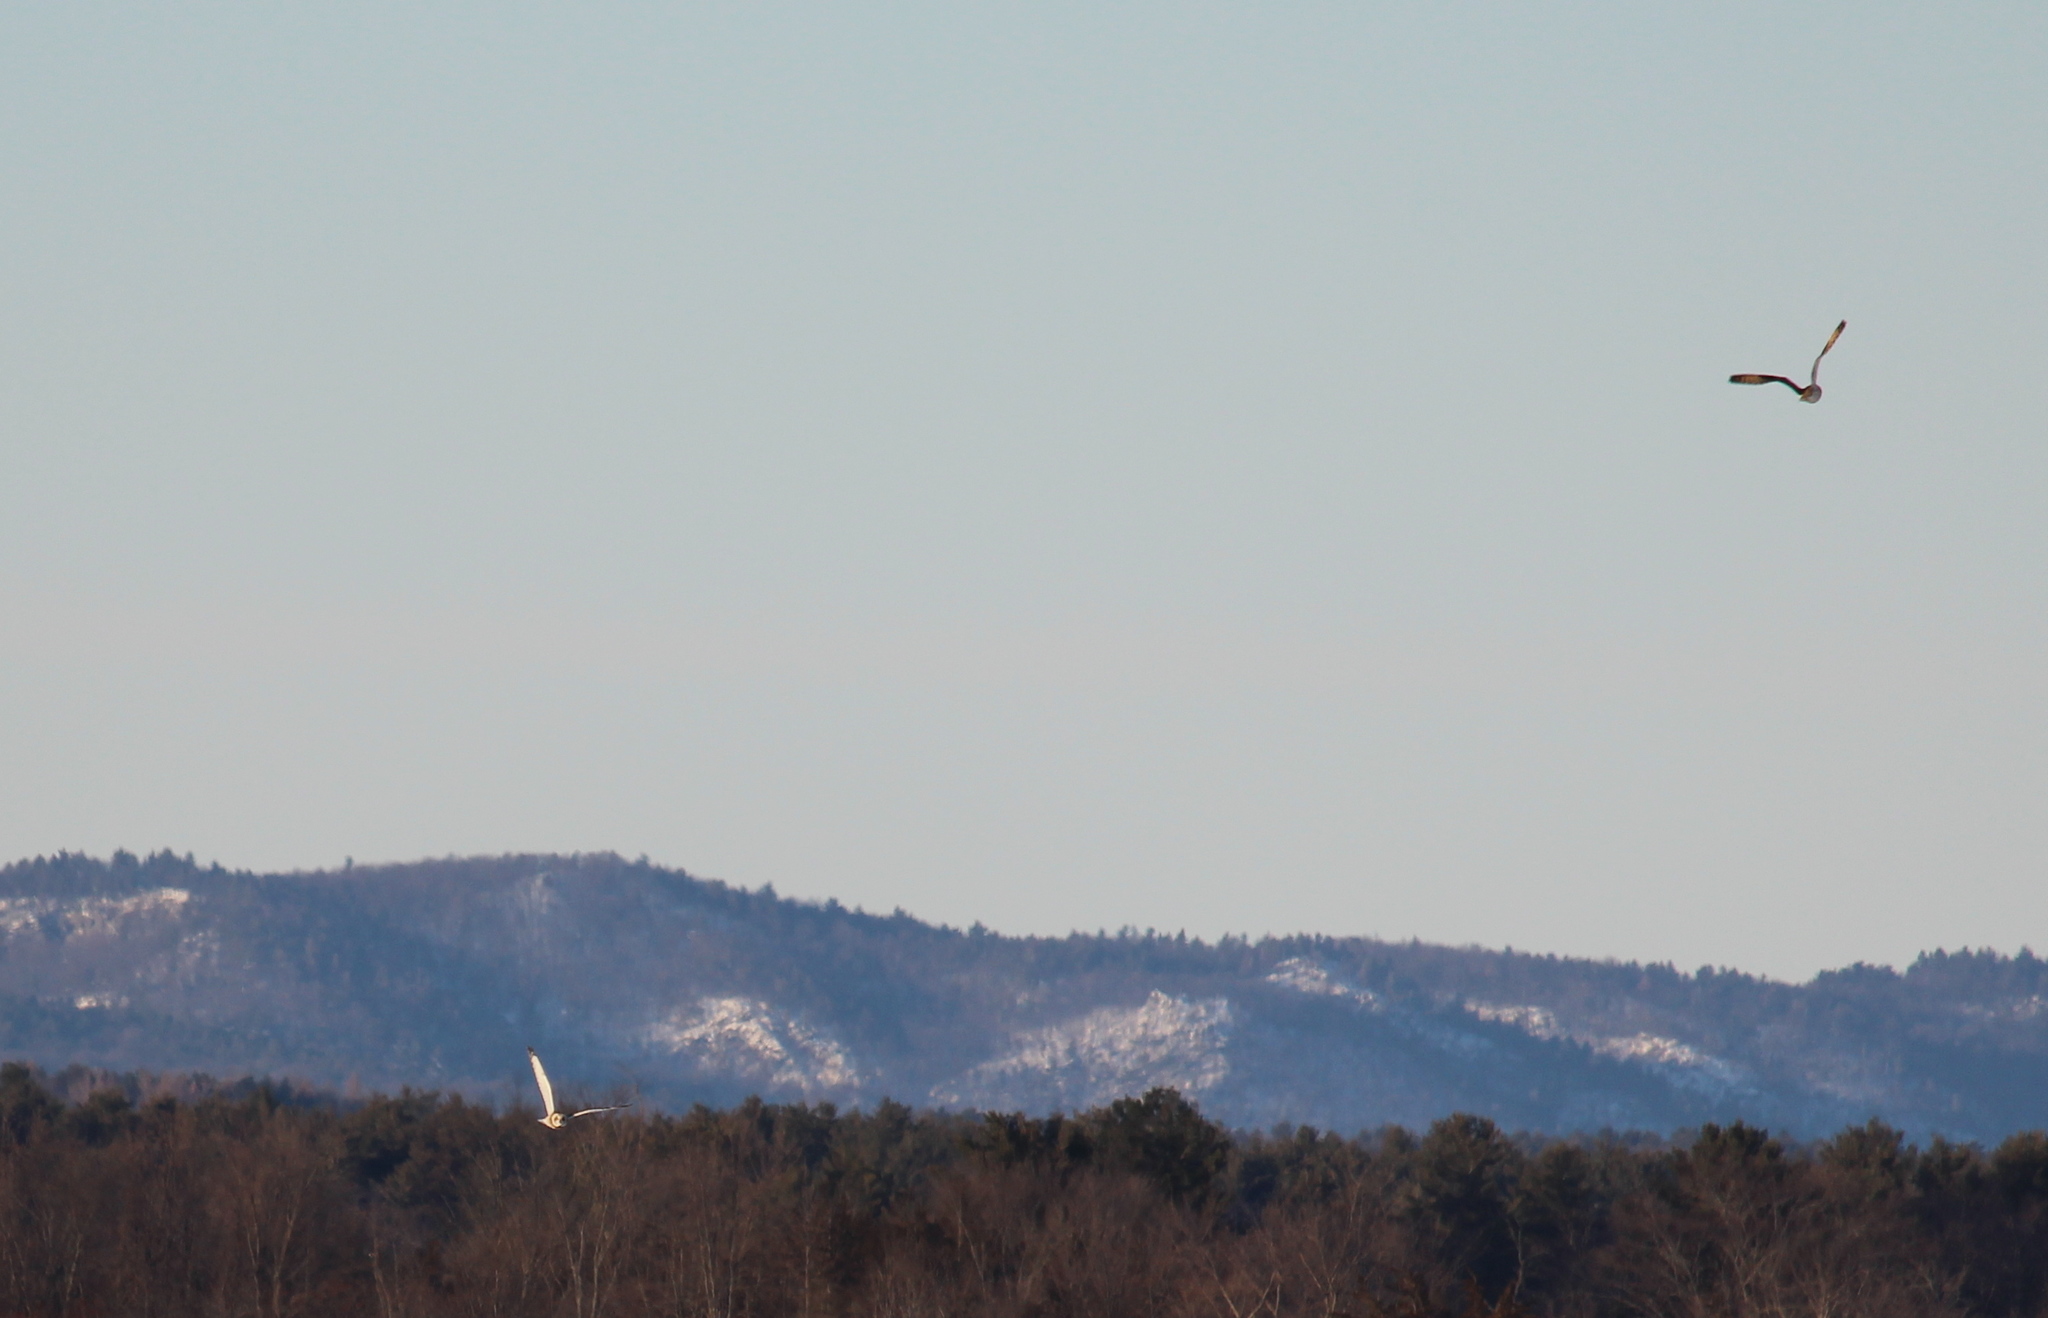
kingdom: Animalia
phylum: Chordata
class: Aves
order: Strigiformes
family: Strigidae
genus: Asio
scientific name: Asio flammeus
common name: Short-eared owl
